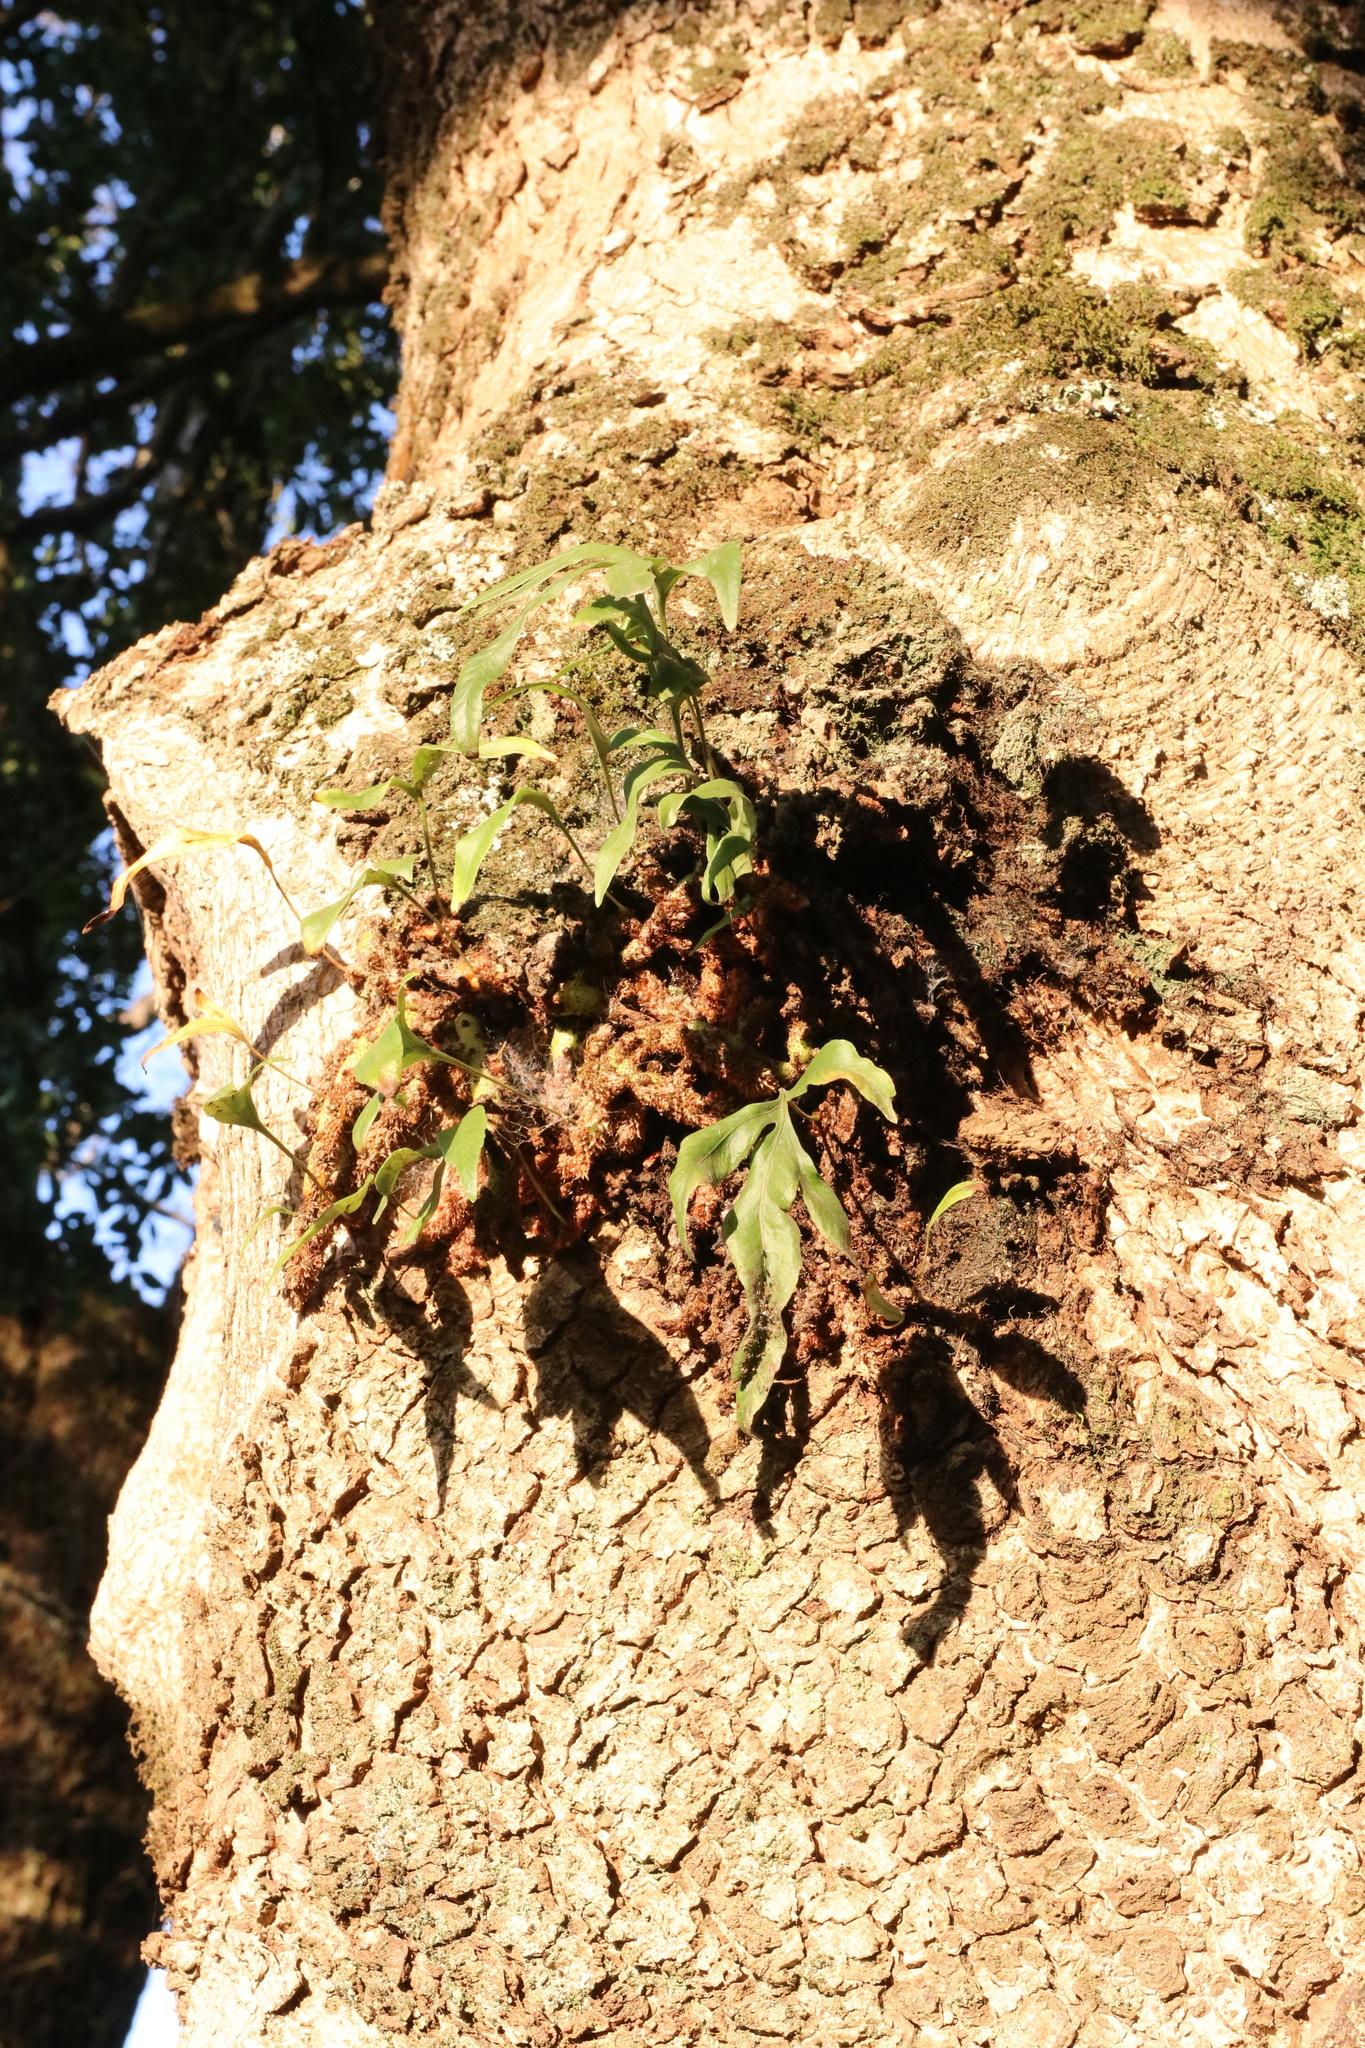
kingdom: Plantae
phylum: Tracheophyta
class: Polypodiopsida
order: Polypodiales
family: Polypodiaceae
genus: Synammia
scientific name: Synammia feuillei
